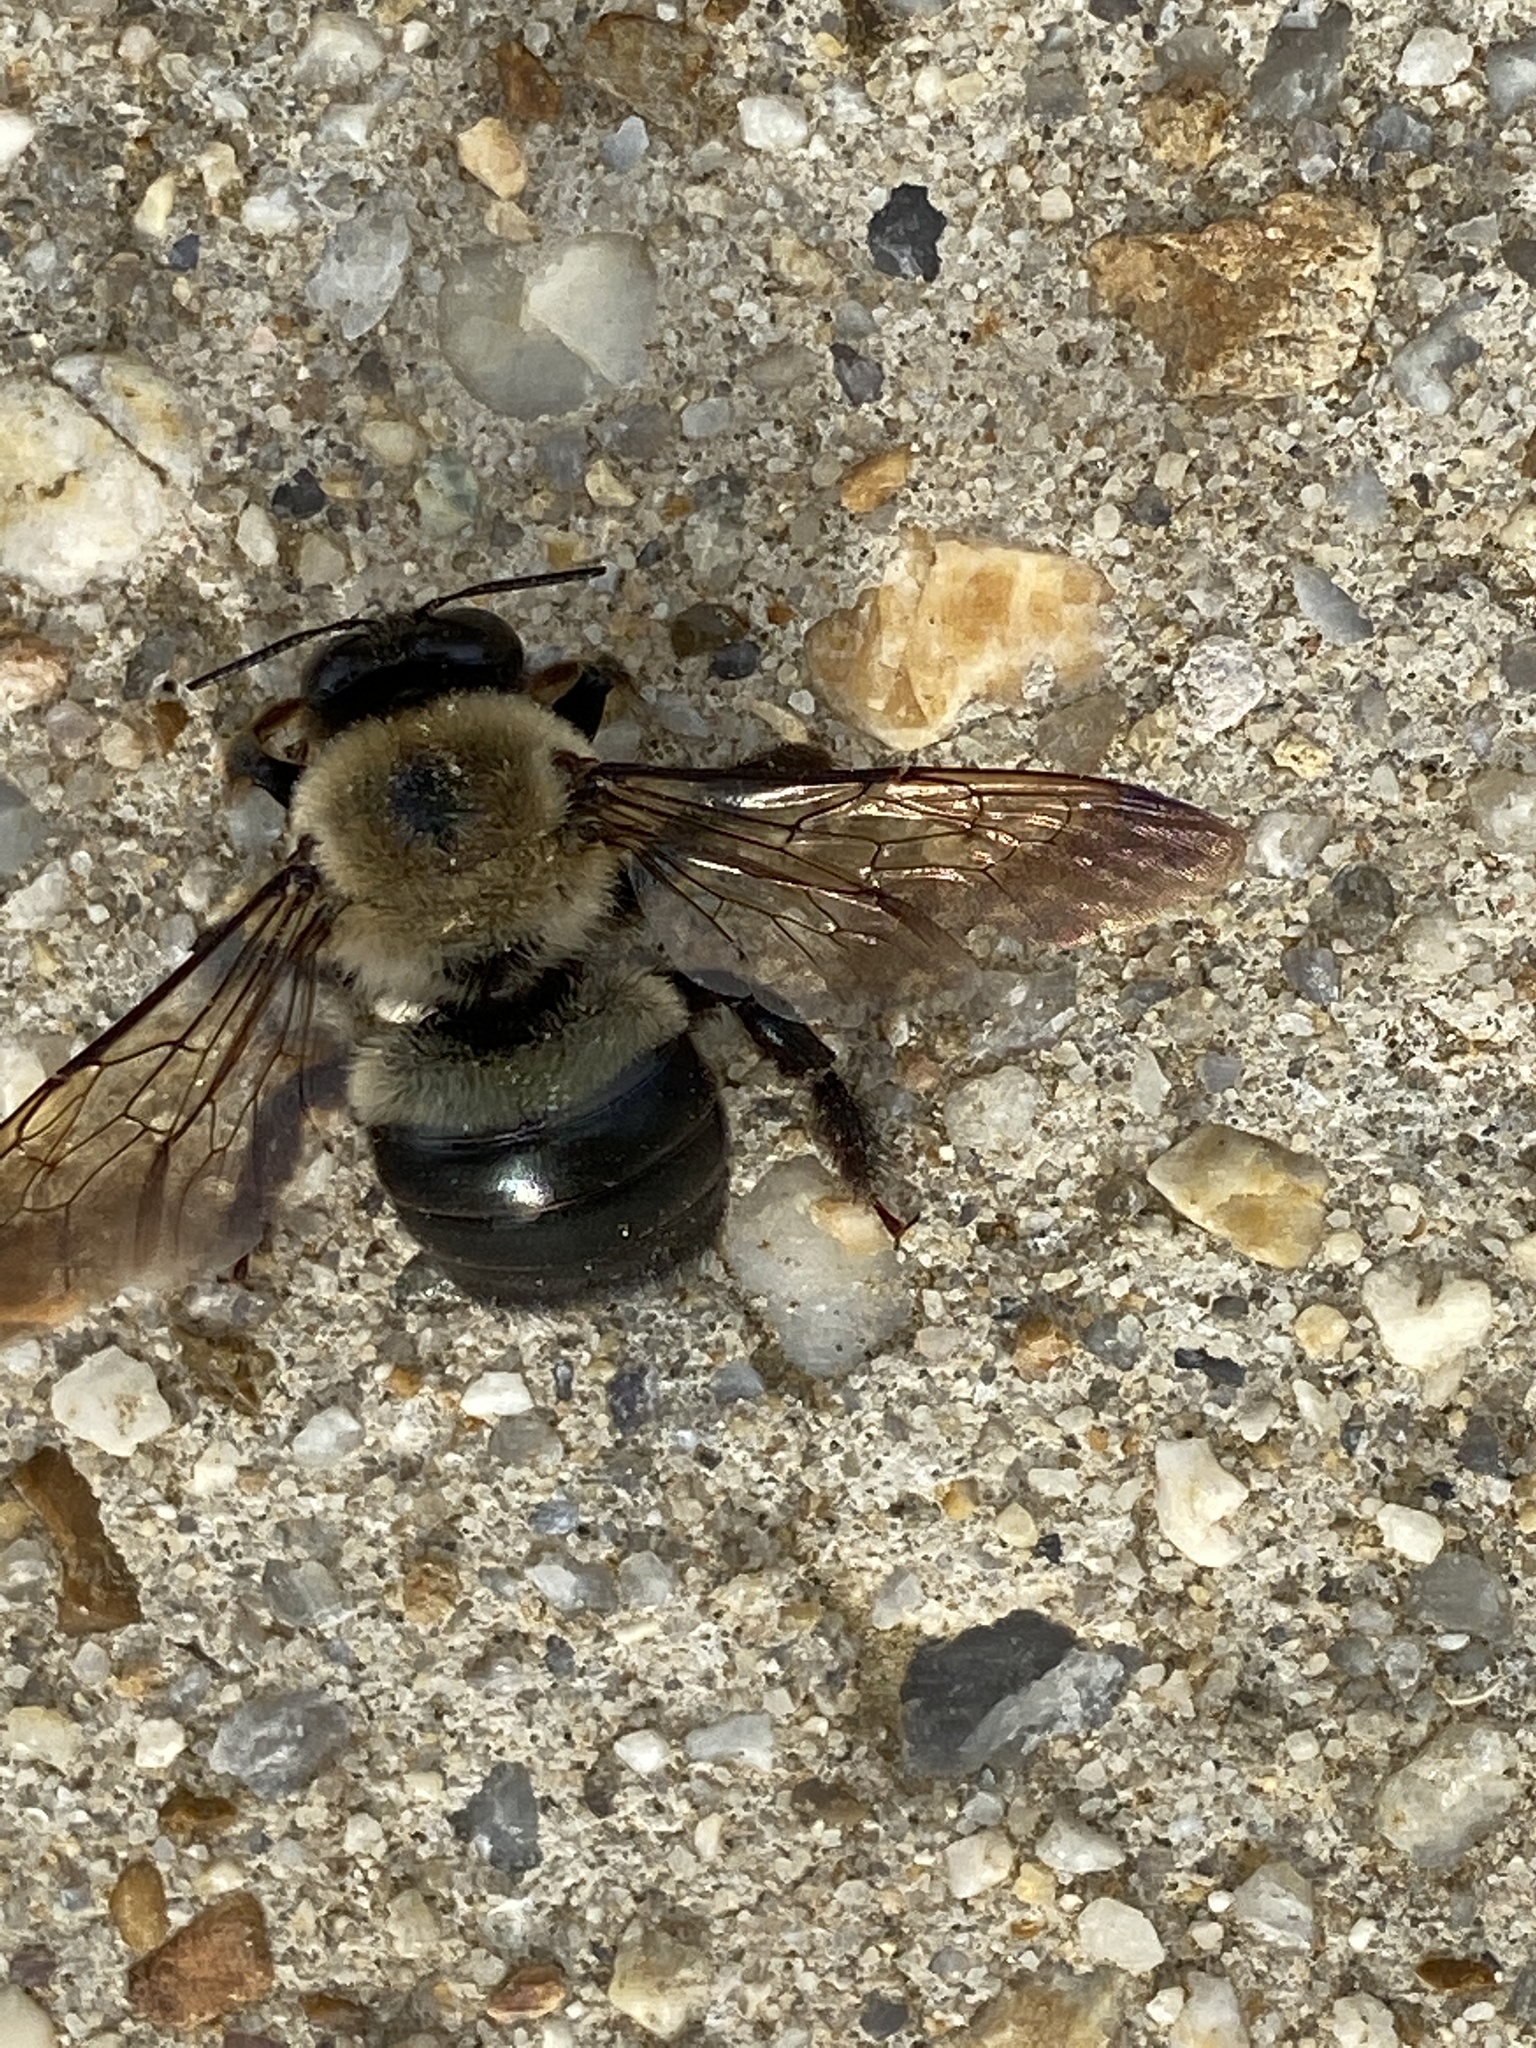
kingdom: Animalia
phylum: Arthropoda
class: Insecta
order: Hymenoptera
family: Apidae
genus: Xylocopa
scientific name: Xylocopa virginica
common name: Carpenter bee
